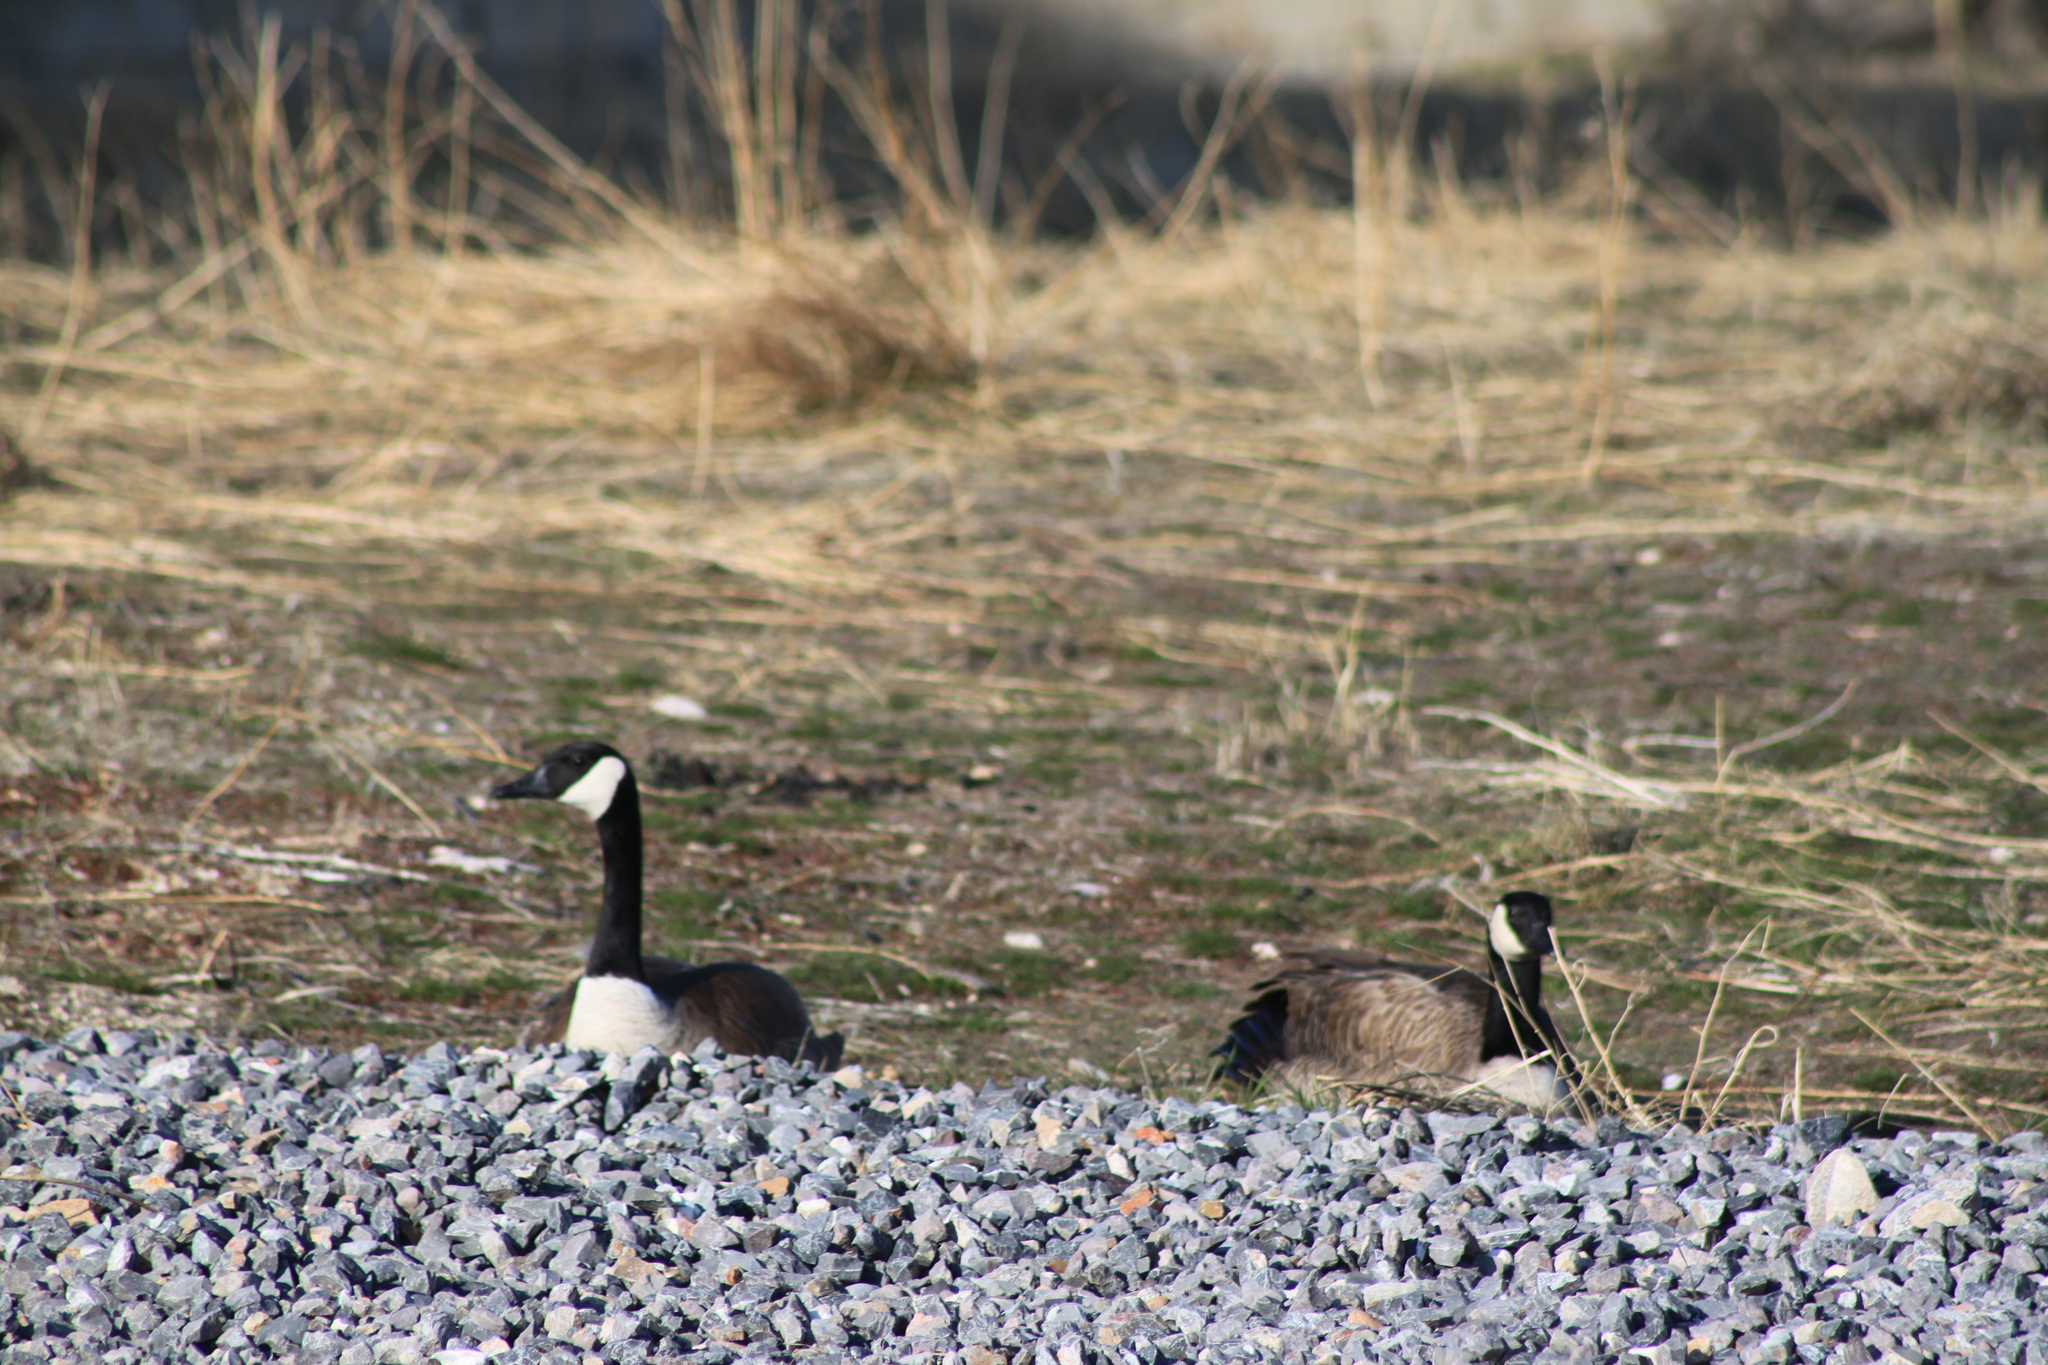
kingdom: Animalia
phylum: Chordata
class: Aves
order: Anseriformes
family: Anatidae
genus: Branta
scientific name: Branta canadensis
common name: Canada goose
